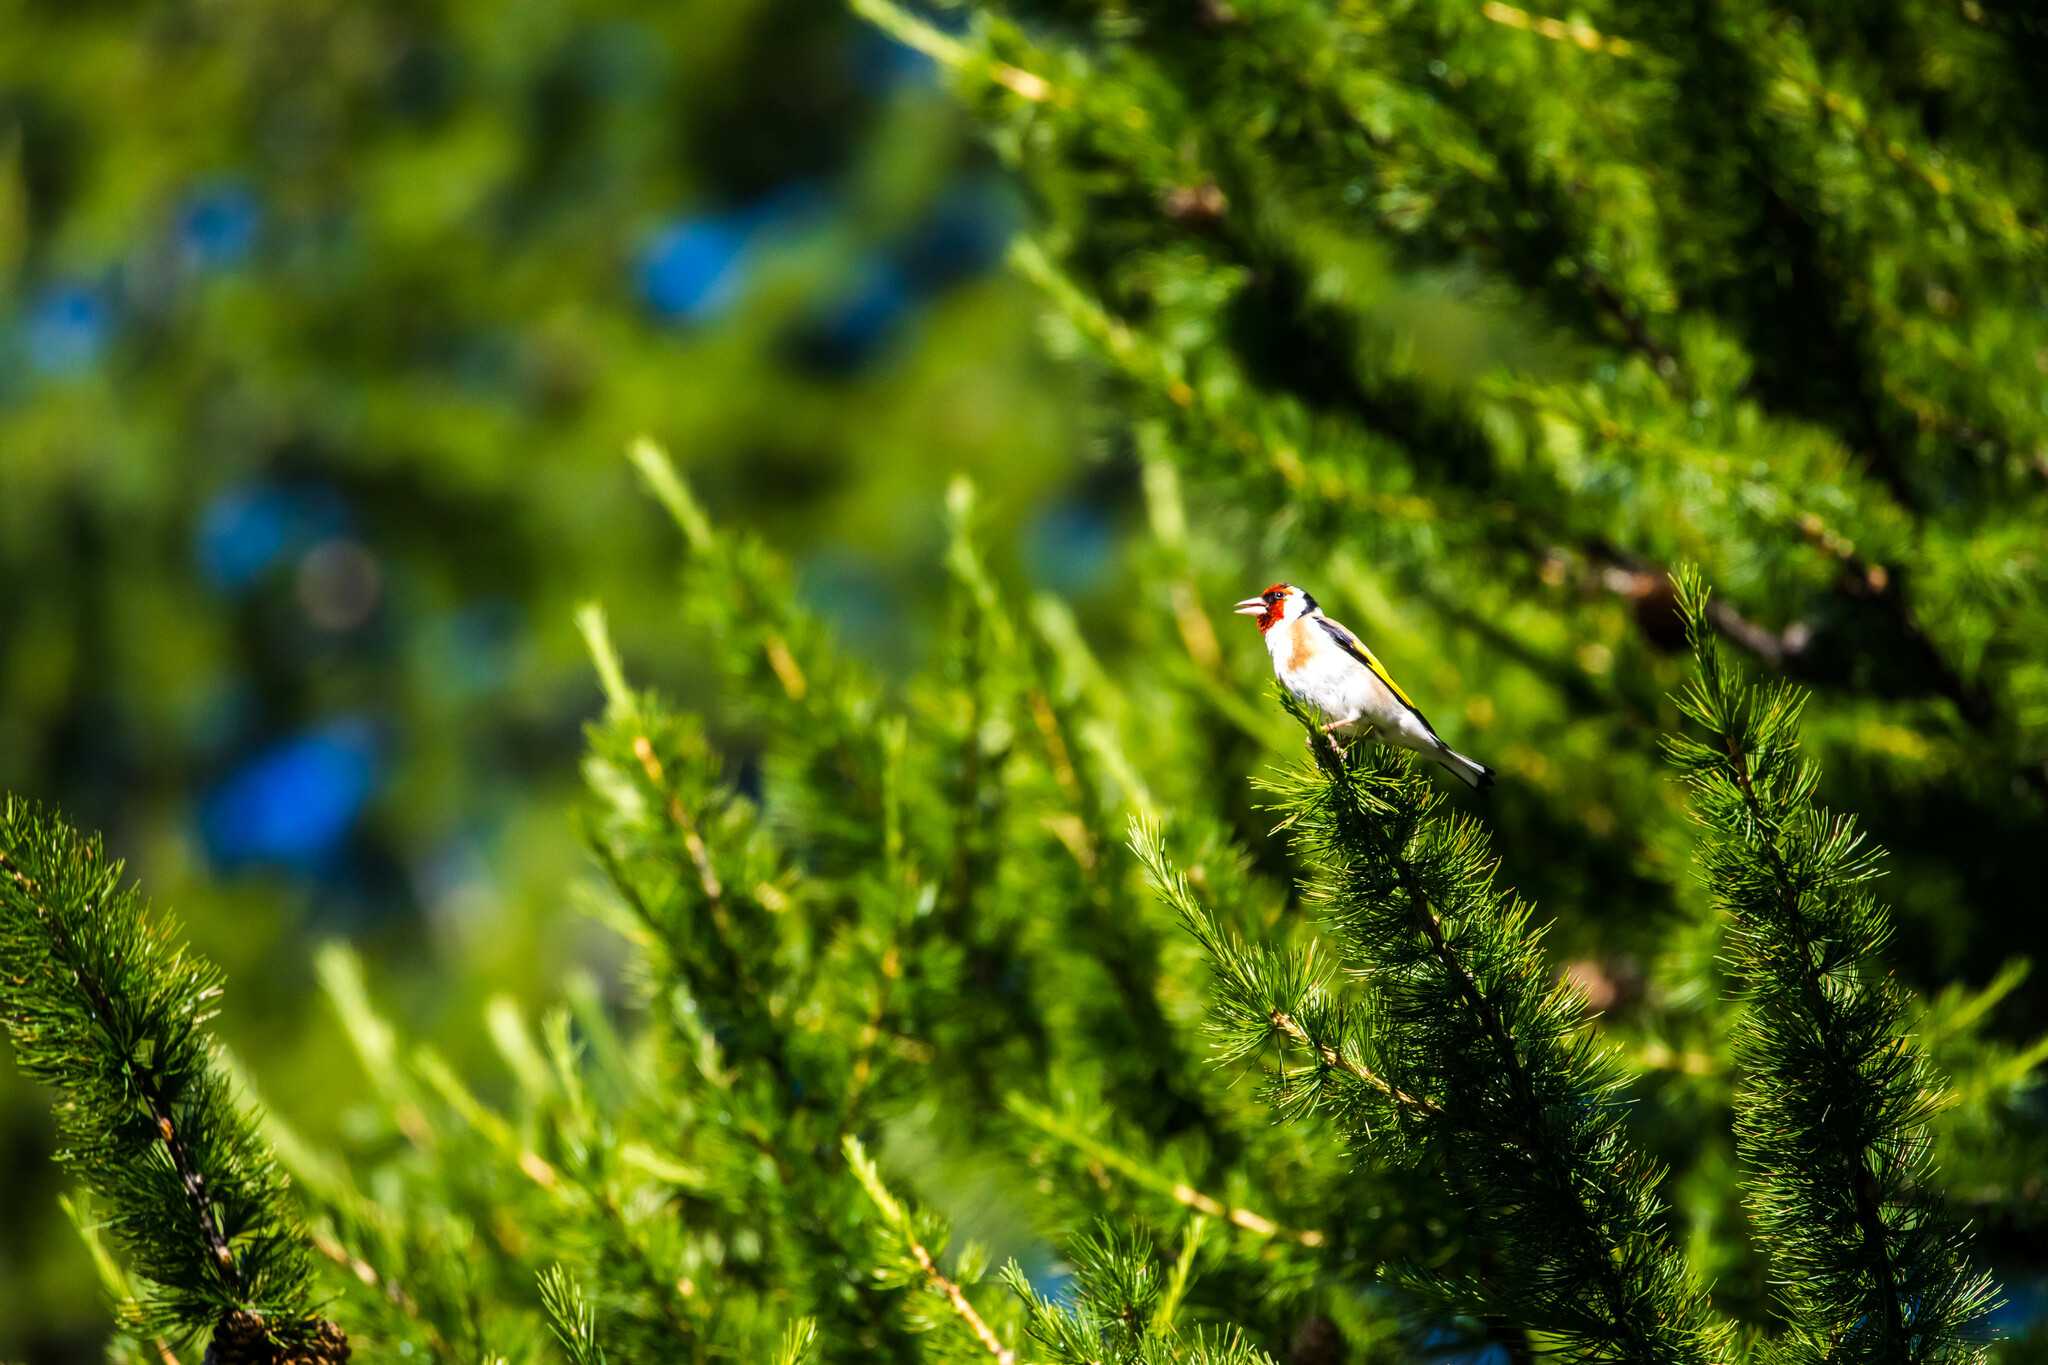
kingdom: Animalia
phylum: Chordata
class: Aves
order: Passeriformes
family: Fringillidae
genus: Carduelis
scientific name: Carduelis carduelis
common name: European goldfinch
